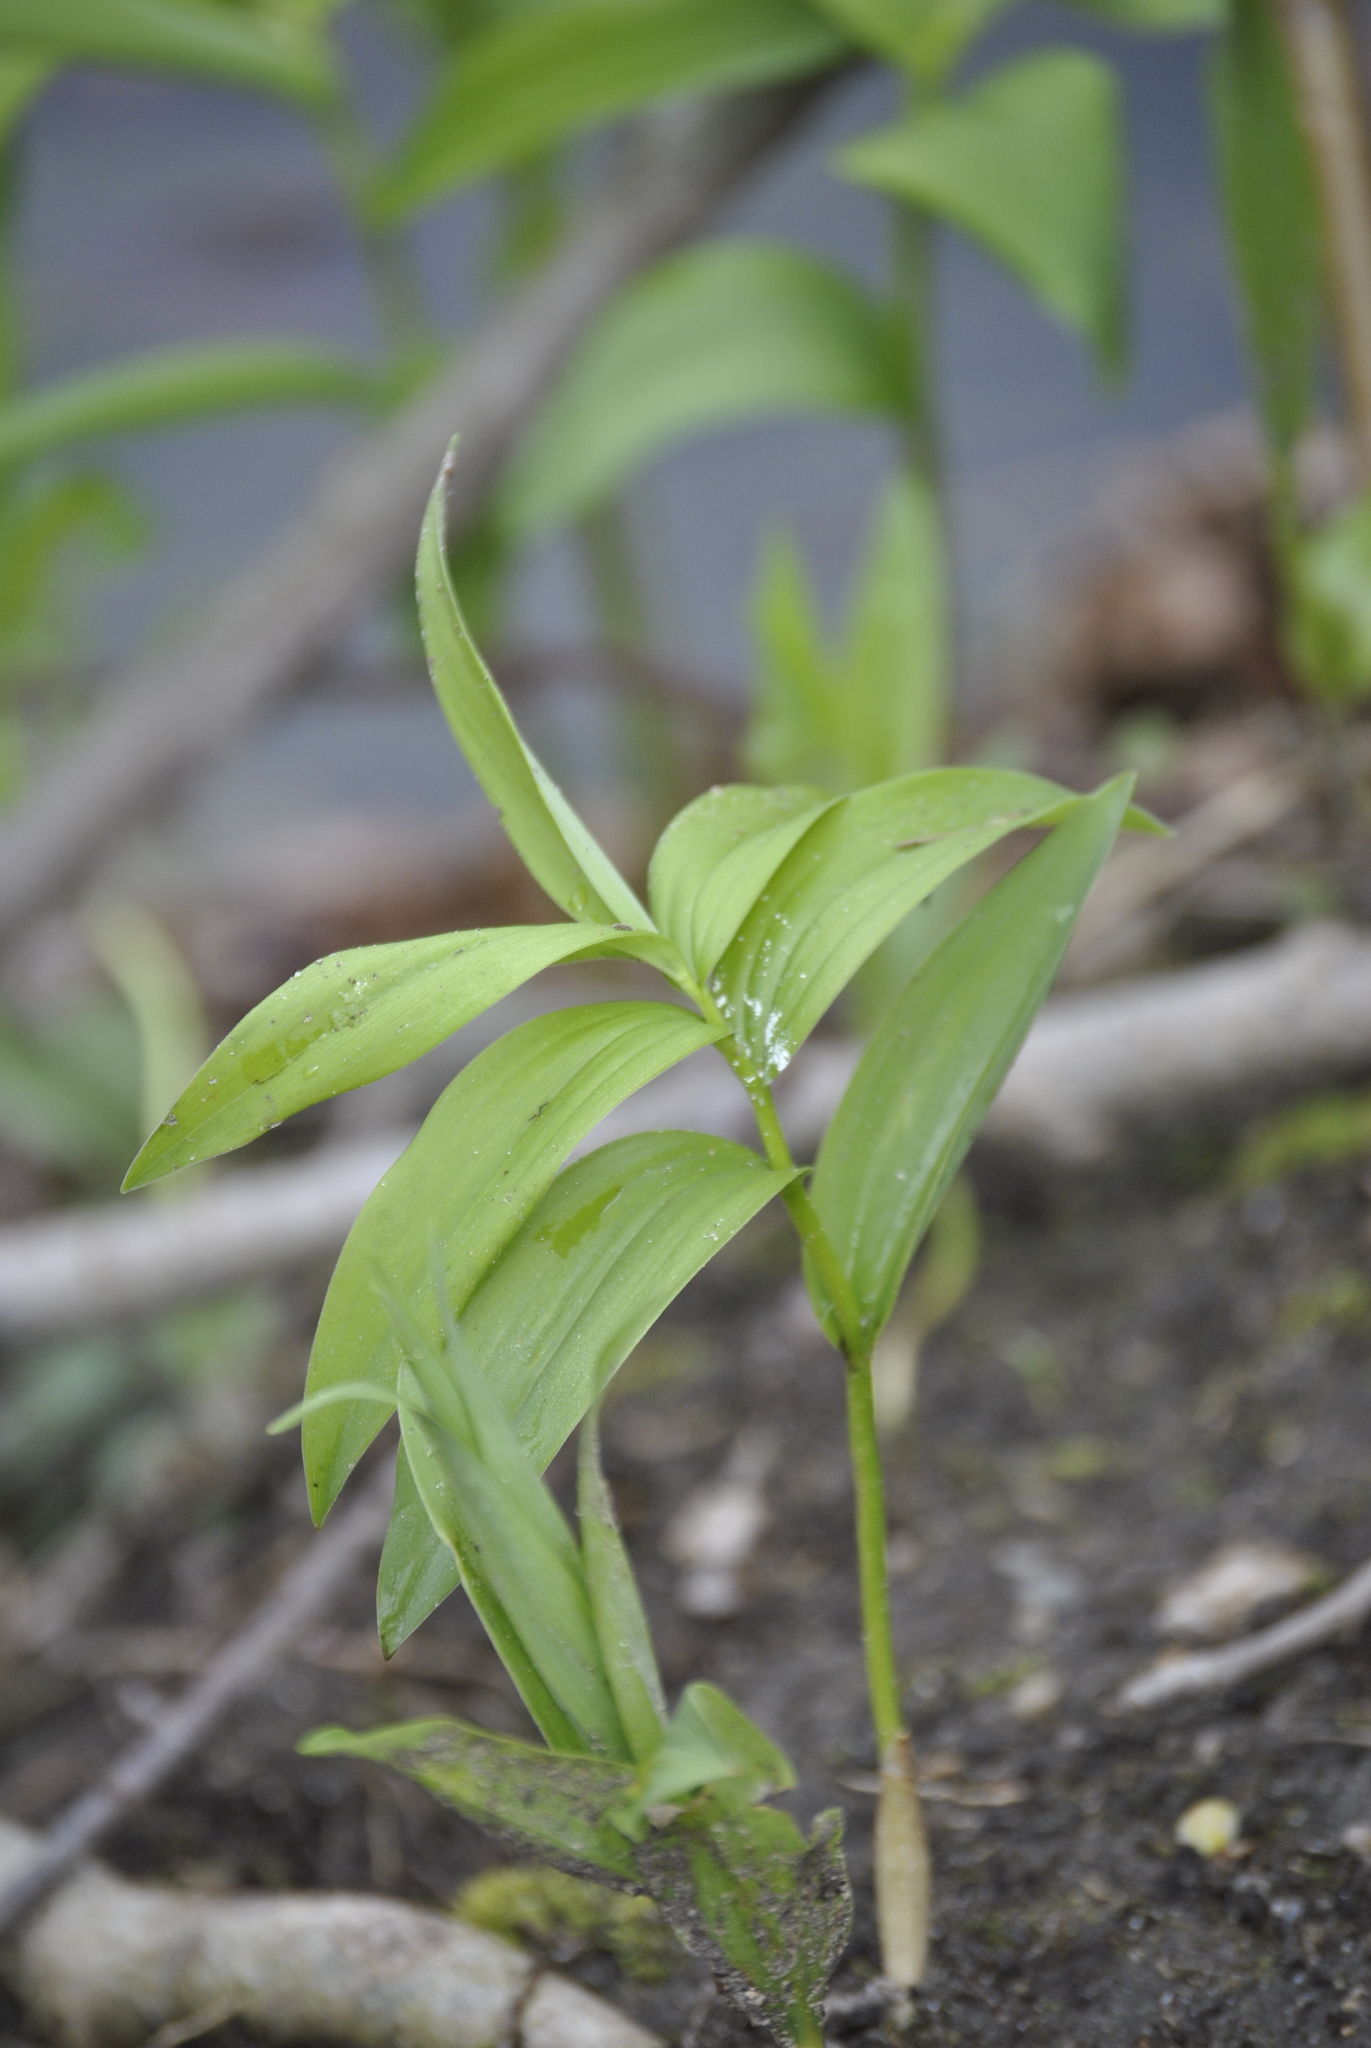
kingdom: Plantae
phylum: Tracheophyta
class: Liliopsida
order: Asparagales
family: Asparagaceae
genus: Maianthemum
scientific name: Maianthemum stellatum
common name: Little false solomon's seal
